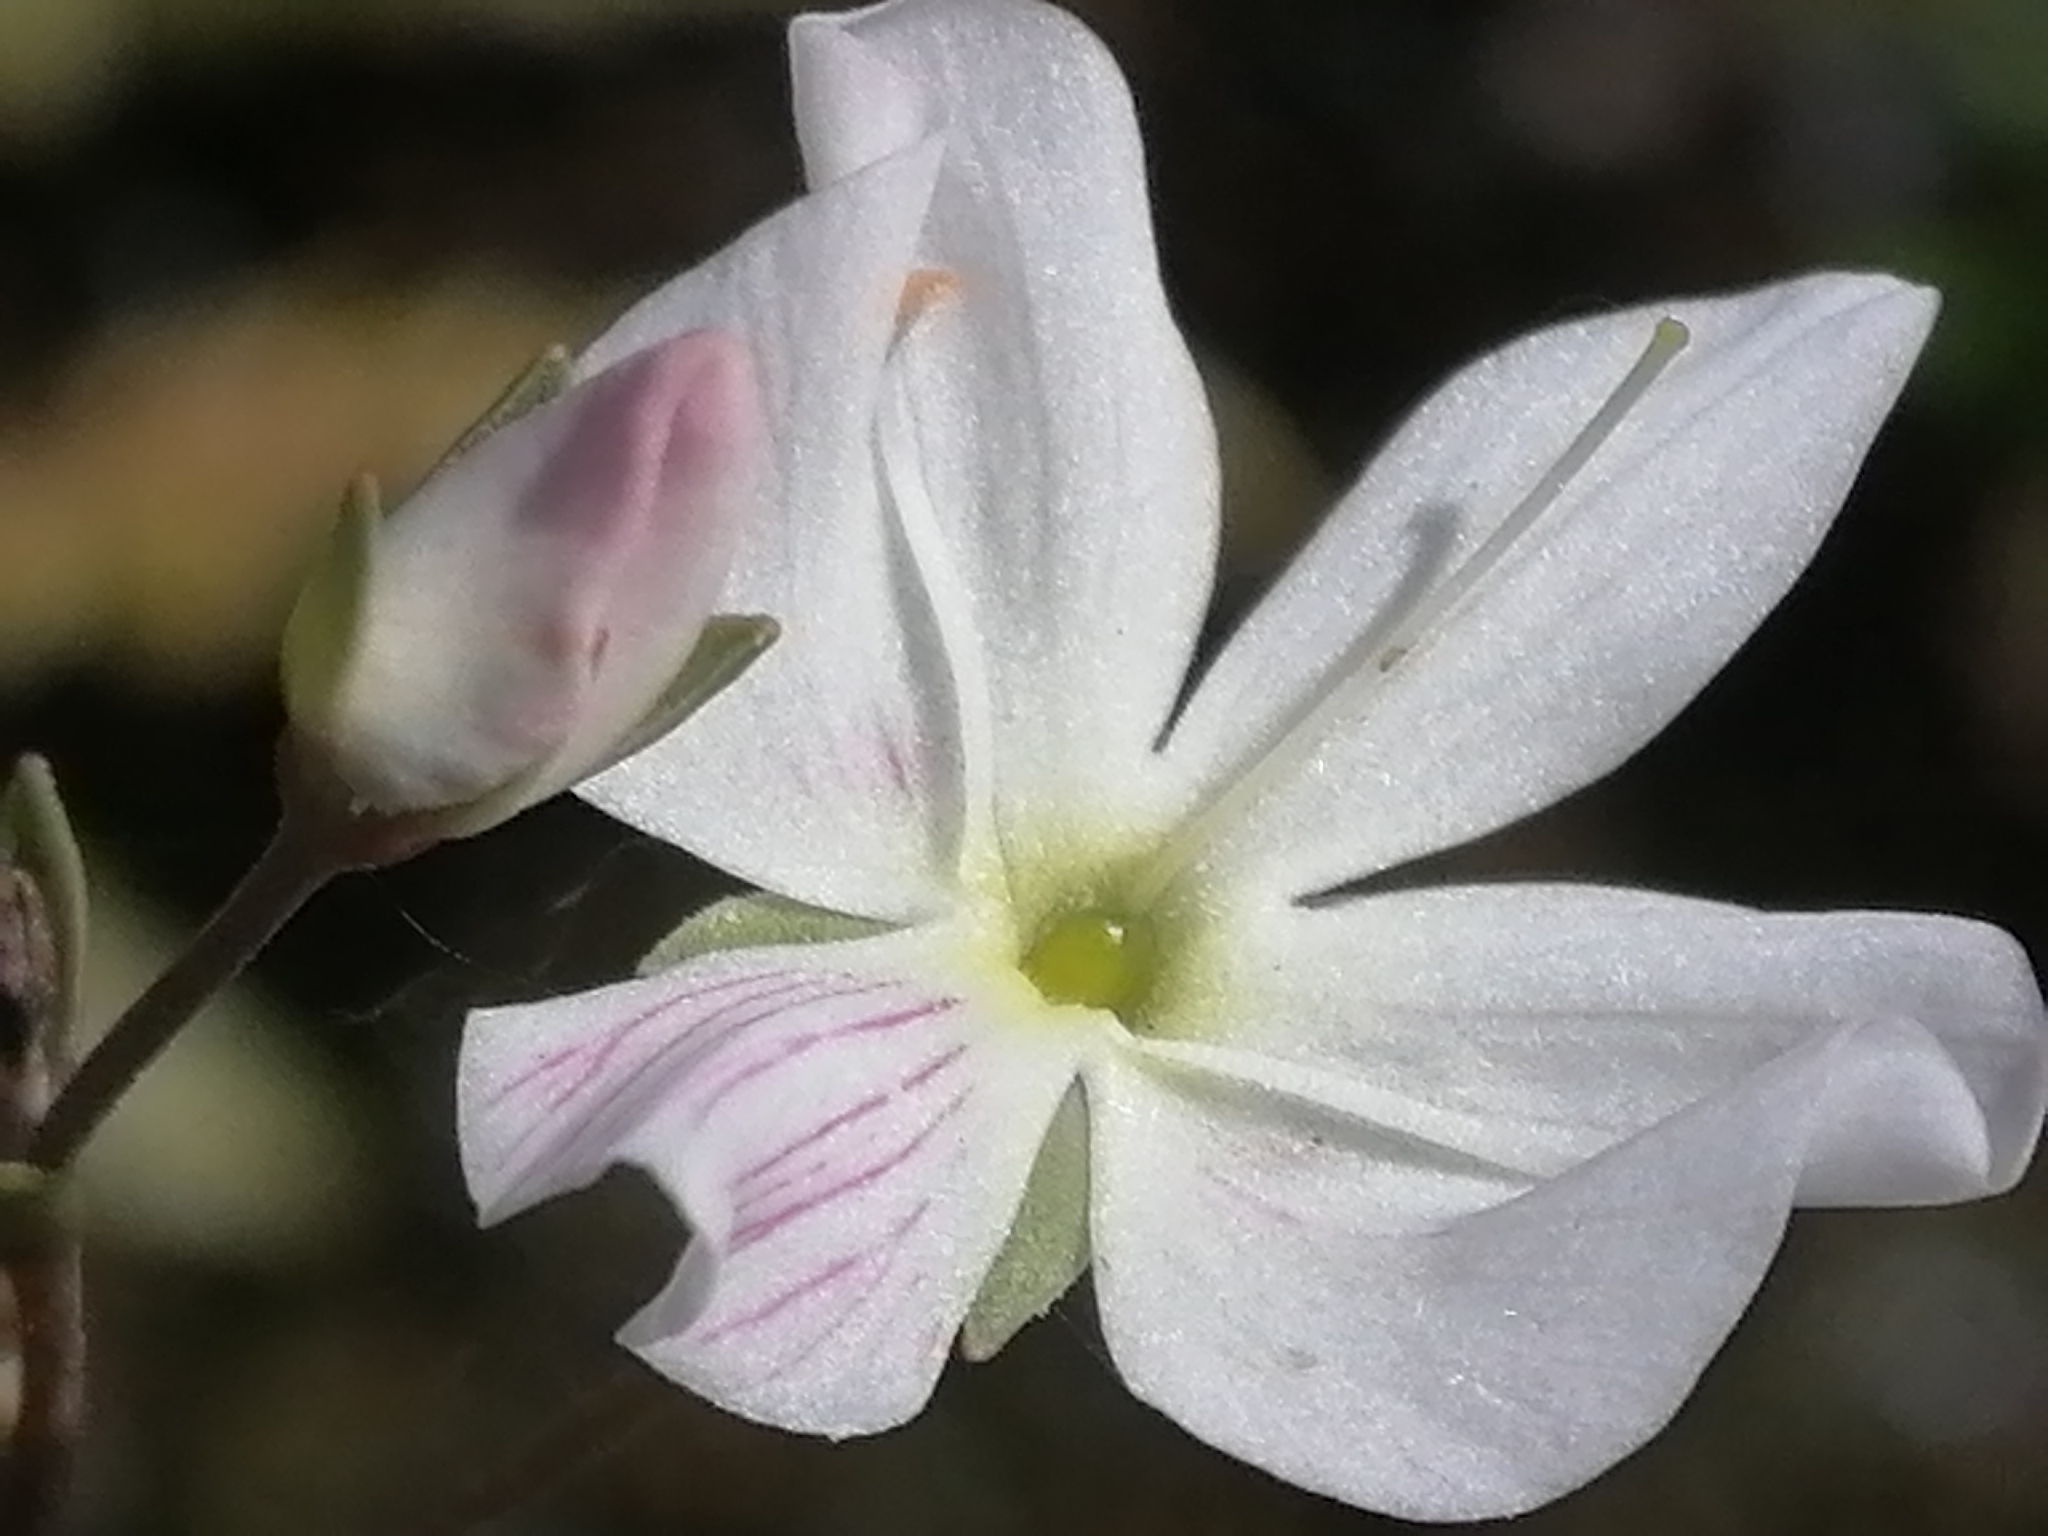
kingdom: Plantae
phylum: Tracheophyta
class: Magnoliopsida
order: Lamiales
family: Plantaginaceae
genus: Veronica
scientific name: Veronica lyallii
